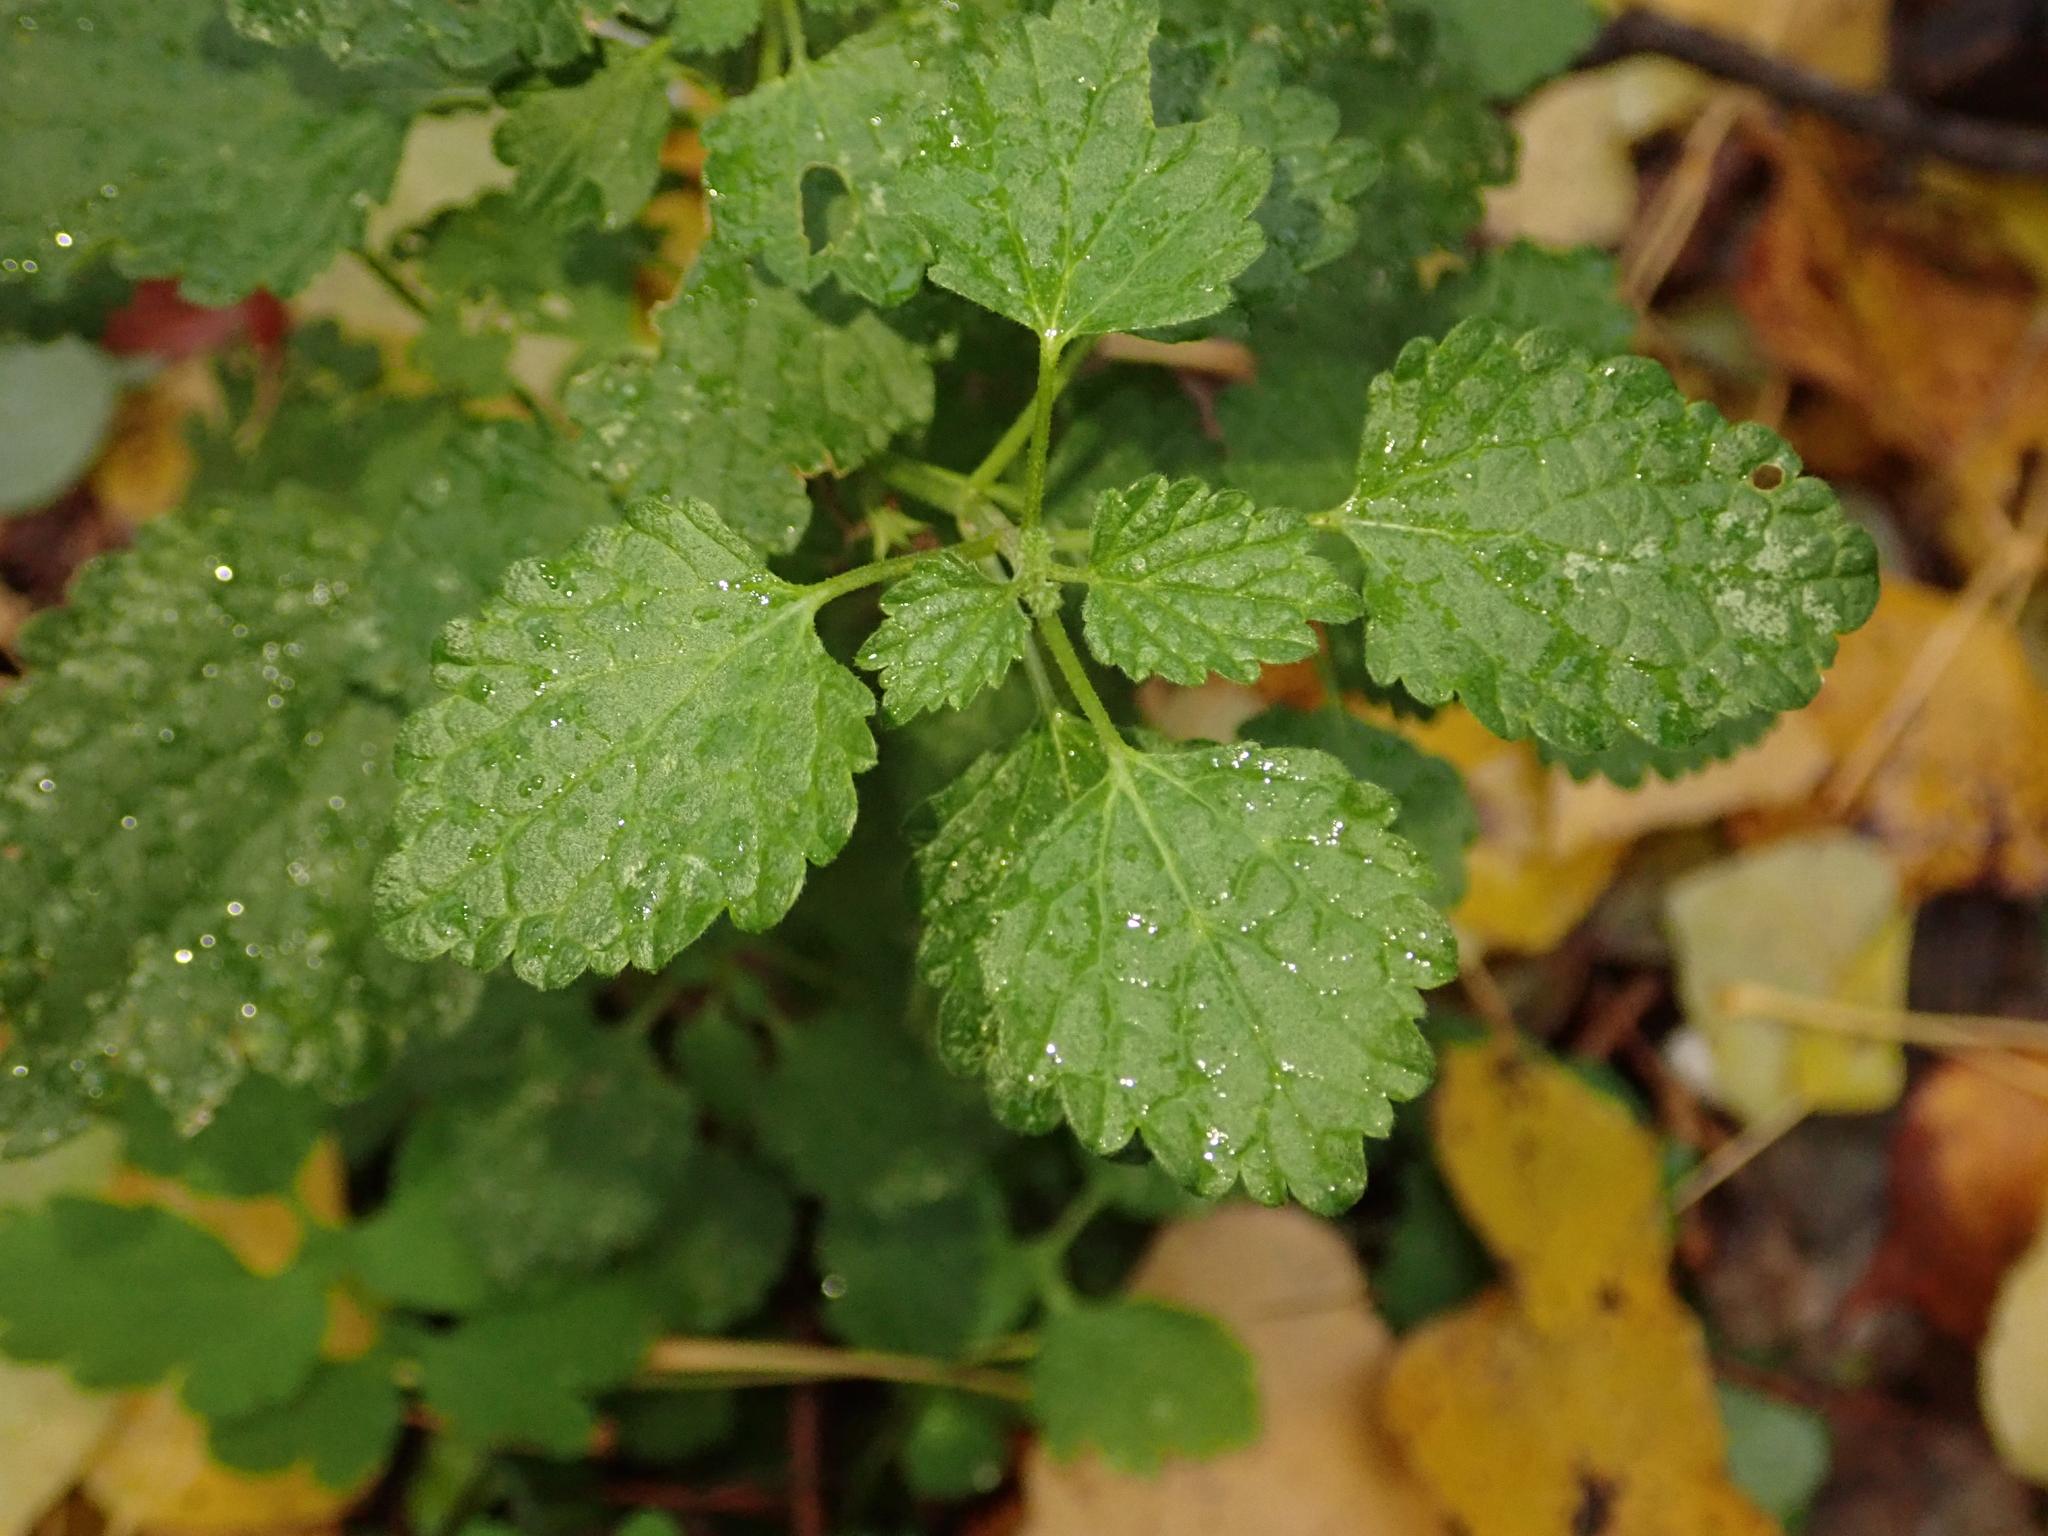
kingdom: Plantae
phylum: Tracheophyta
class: Magnoliopsida
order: Lamiales
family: Lamiaceae
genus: Ballota
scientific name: Ballota nigra
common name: Black horehound
